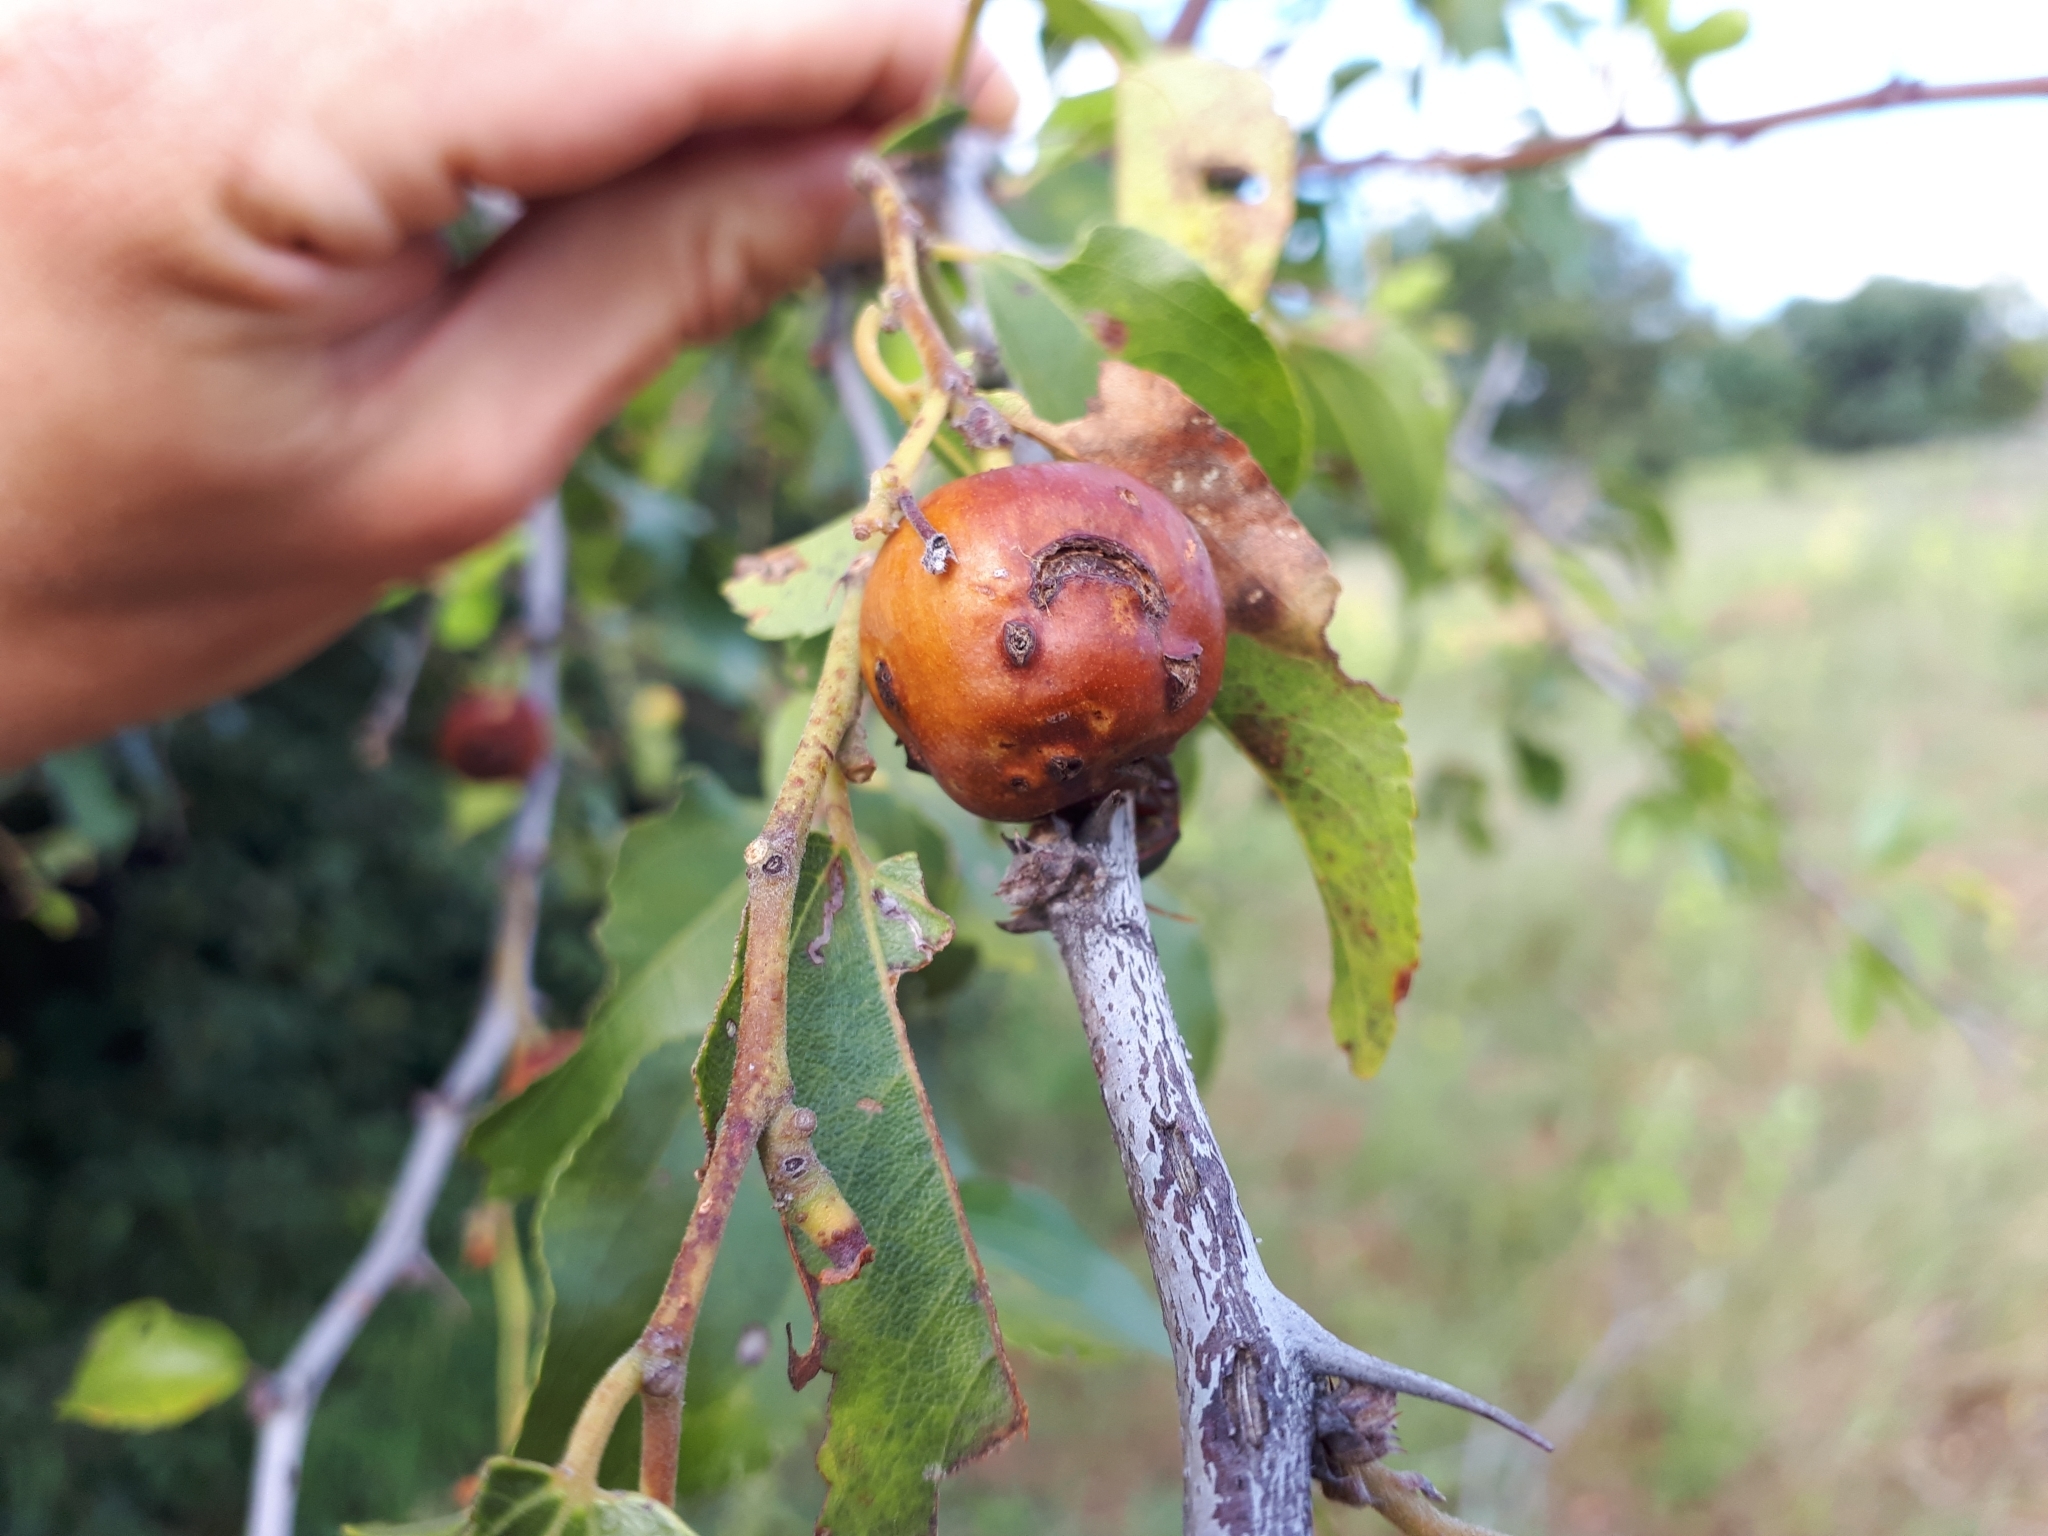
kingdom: Plantae
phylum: Tracheophyta
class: Magnoliopsida
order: Rosales
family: Rhamnaceae
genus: Ziziphus
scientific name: Ziziphus mucronata
